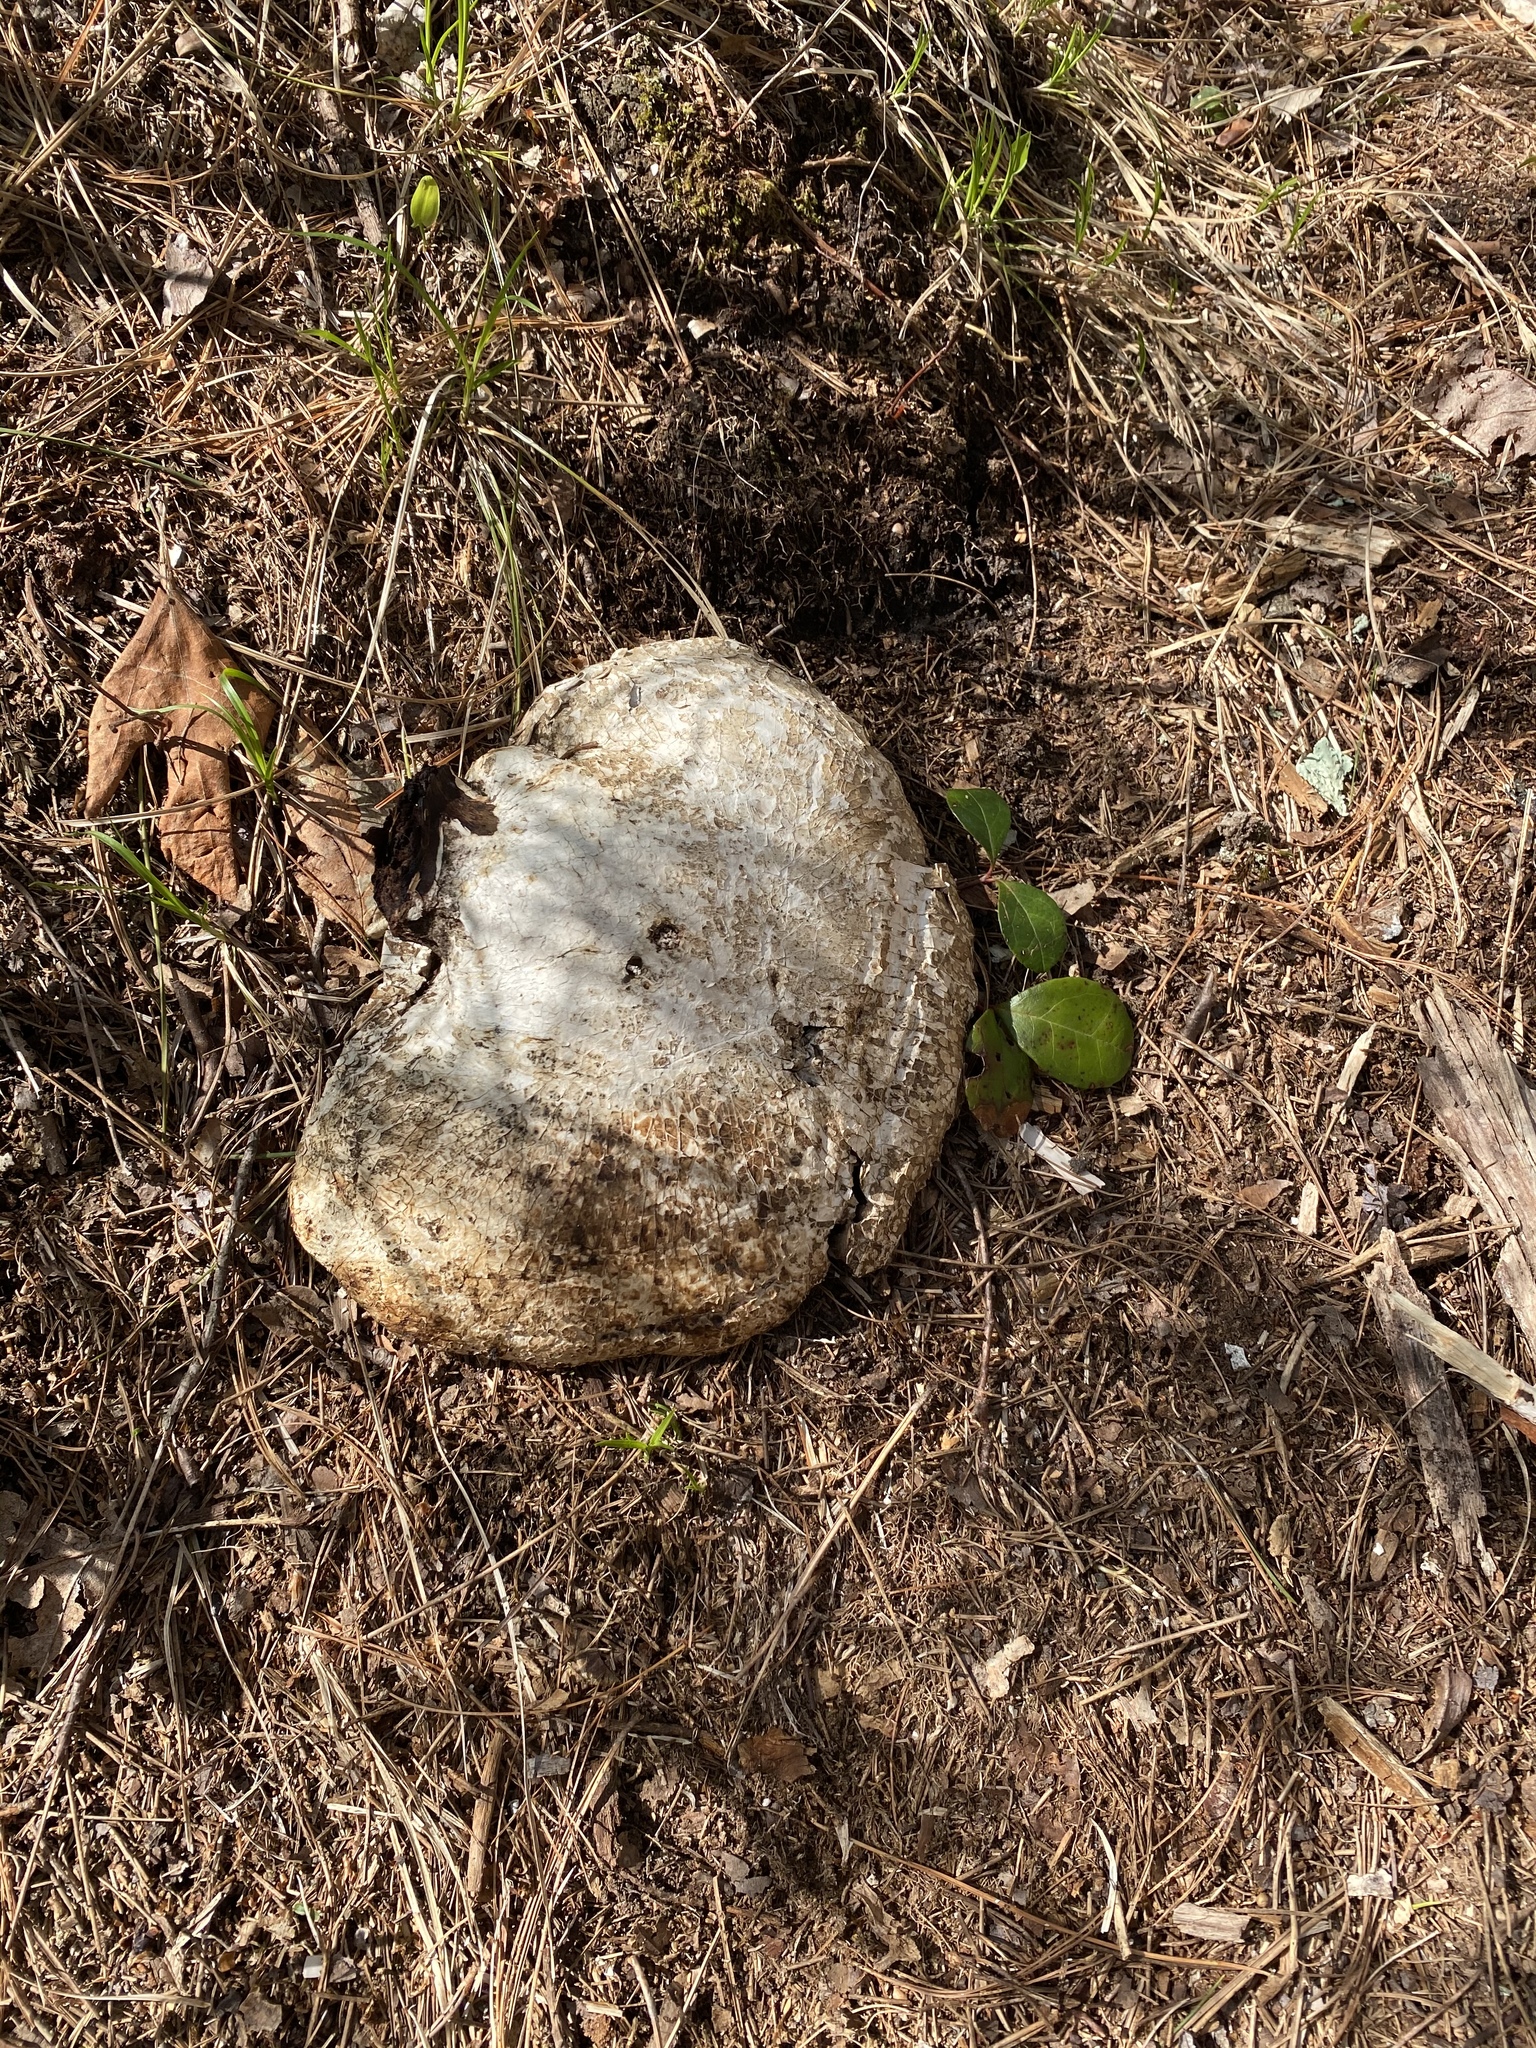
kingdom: Fungi
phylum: Basidiomycota
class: Agaricomycetes
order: Polyporales
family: Fomitopsidaceae
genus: Fomitopsis
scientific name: Fomitopsis betulina
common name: Birch polypore
